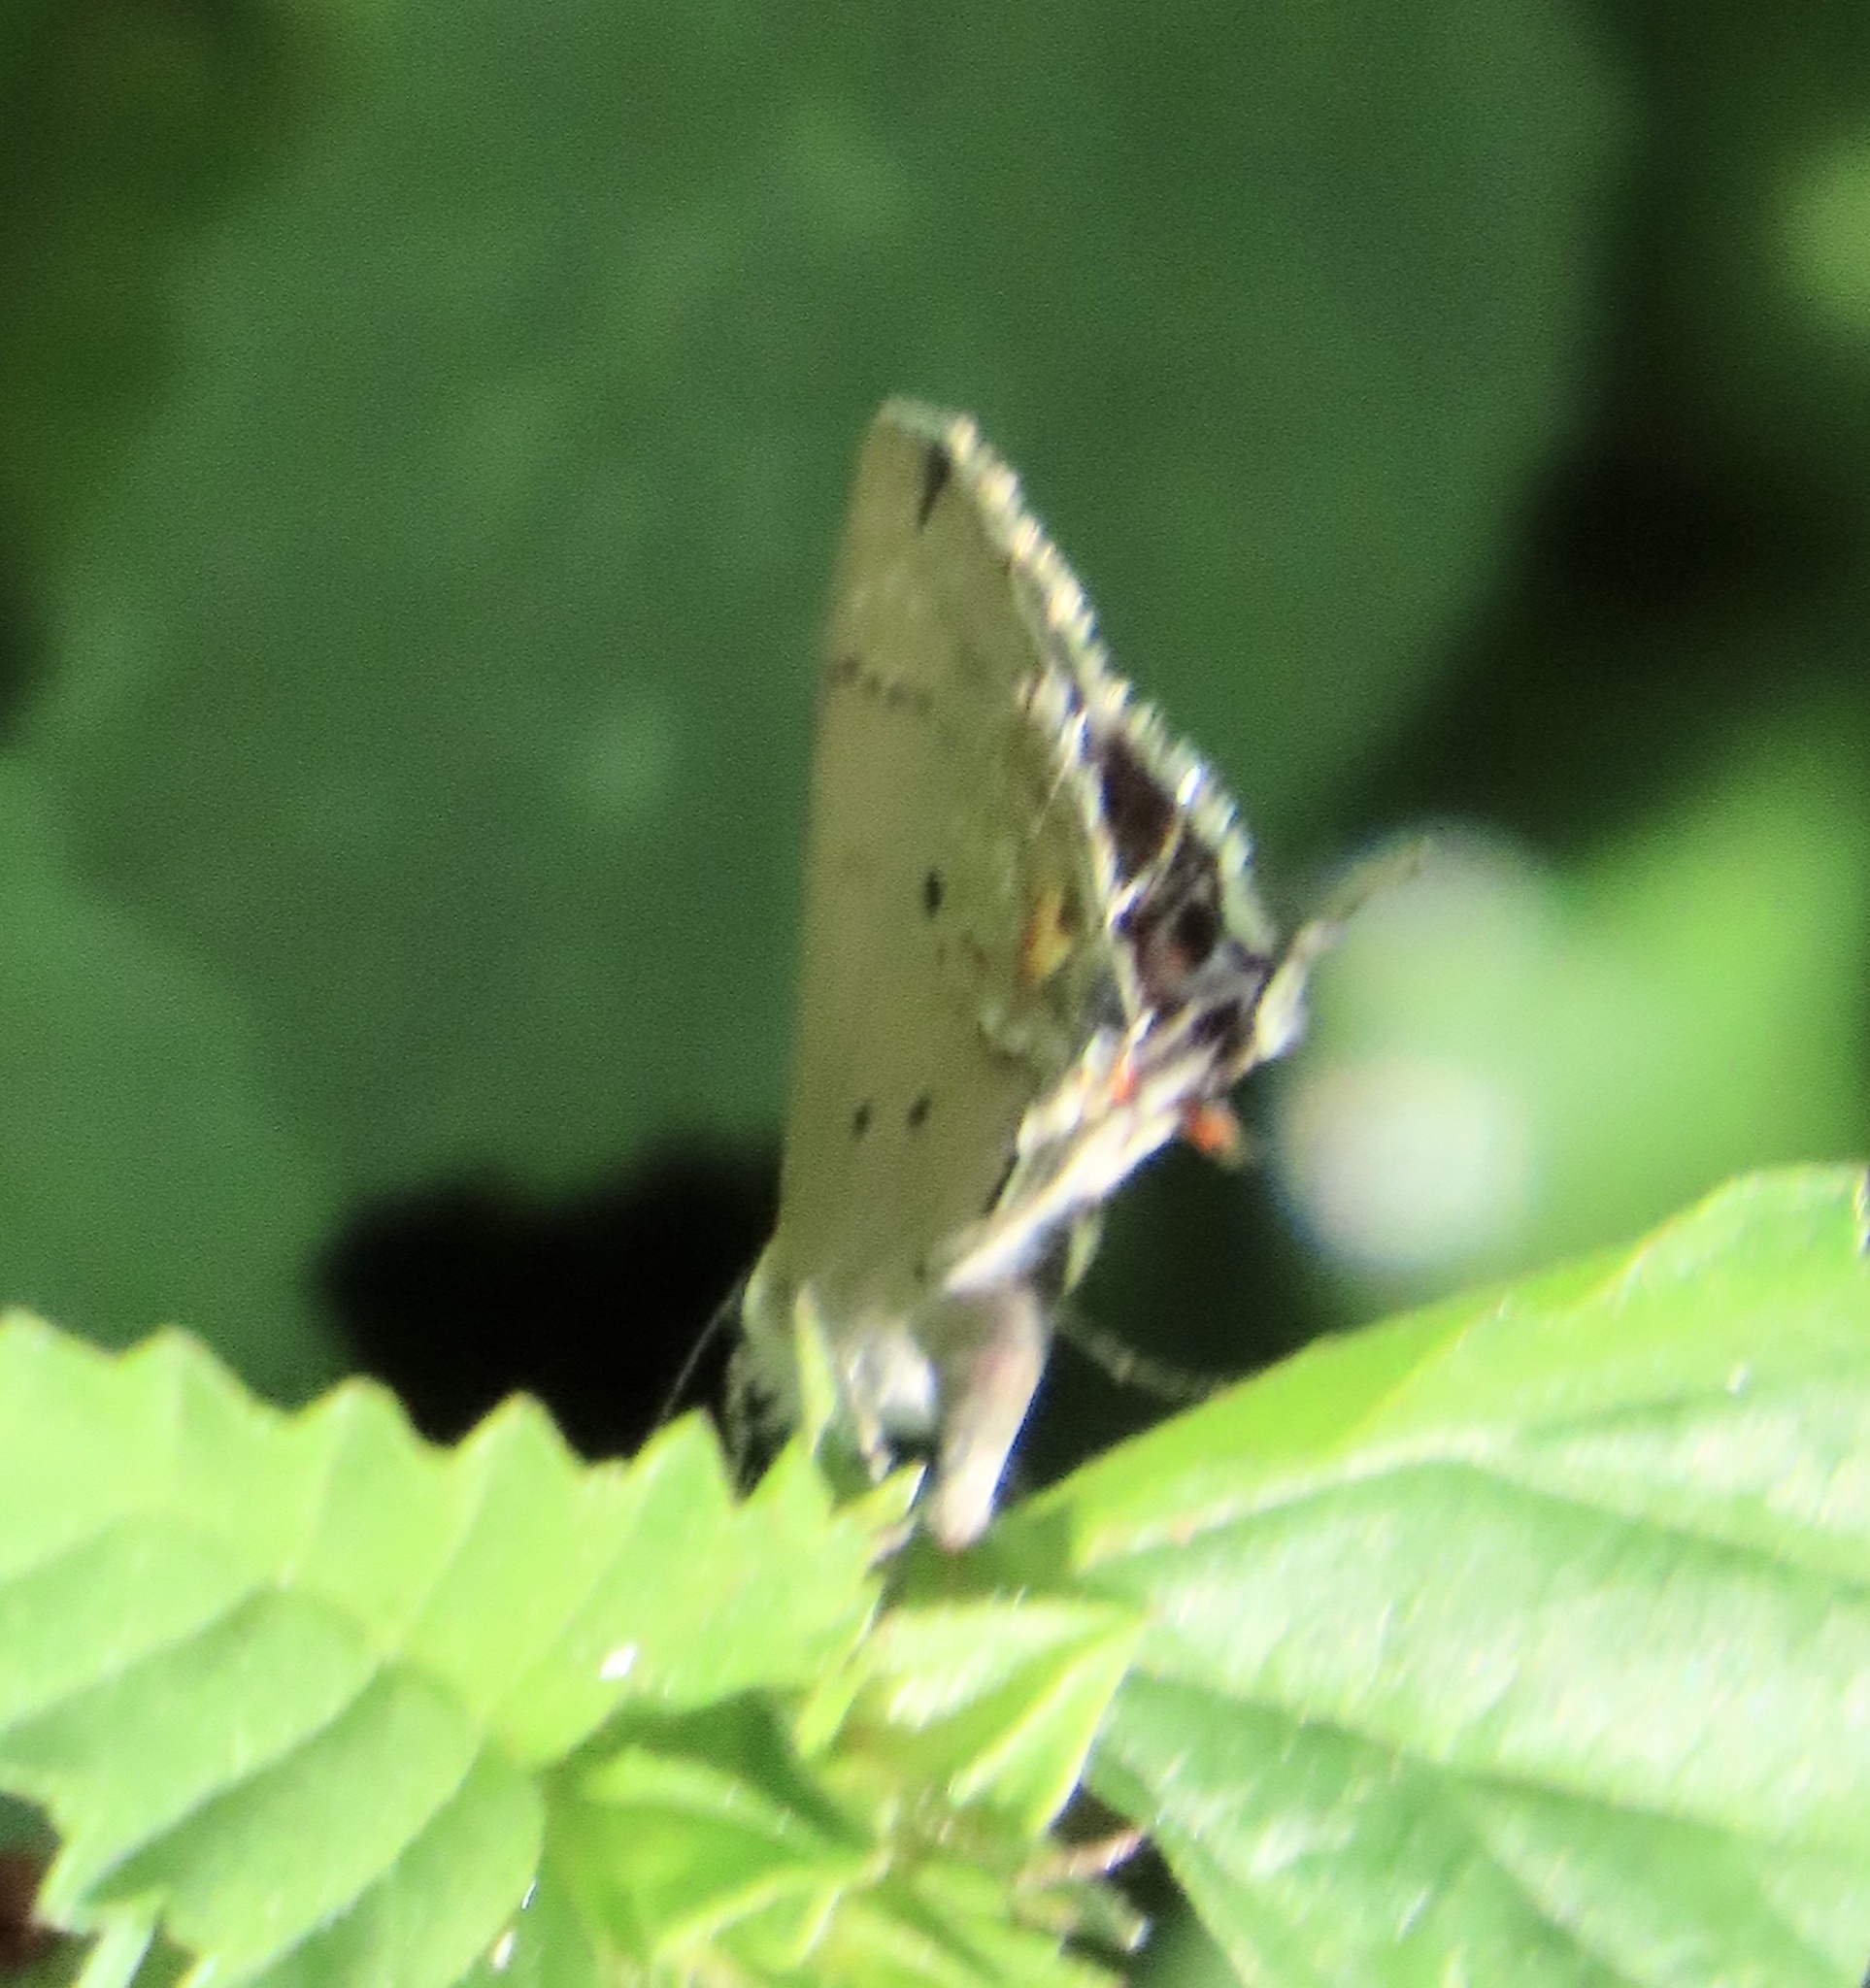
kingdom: Animalia
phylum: Arthropoda
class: Insecta
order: Lepidoptera
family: Lycaenidae
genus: Thecla
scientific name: Thecla limenia
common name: Hairstreak moth
